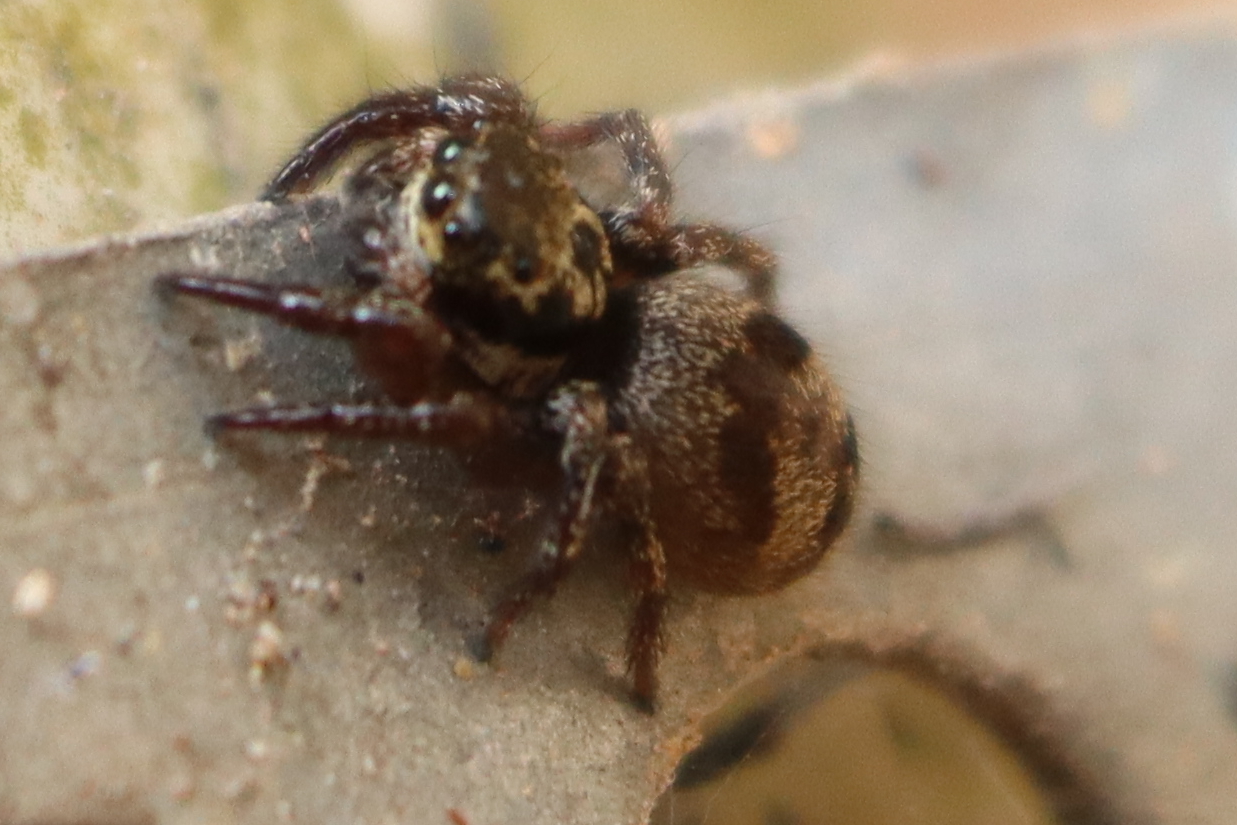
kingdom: Animalia
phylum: Arthropoda
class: Arachnida
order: Araneae
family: Salticidae
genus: Corythalia
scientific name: Corythalia conferta
